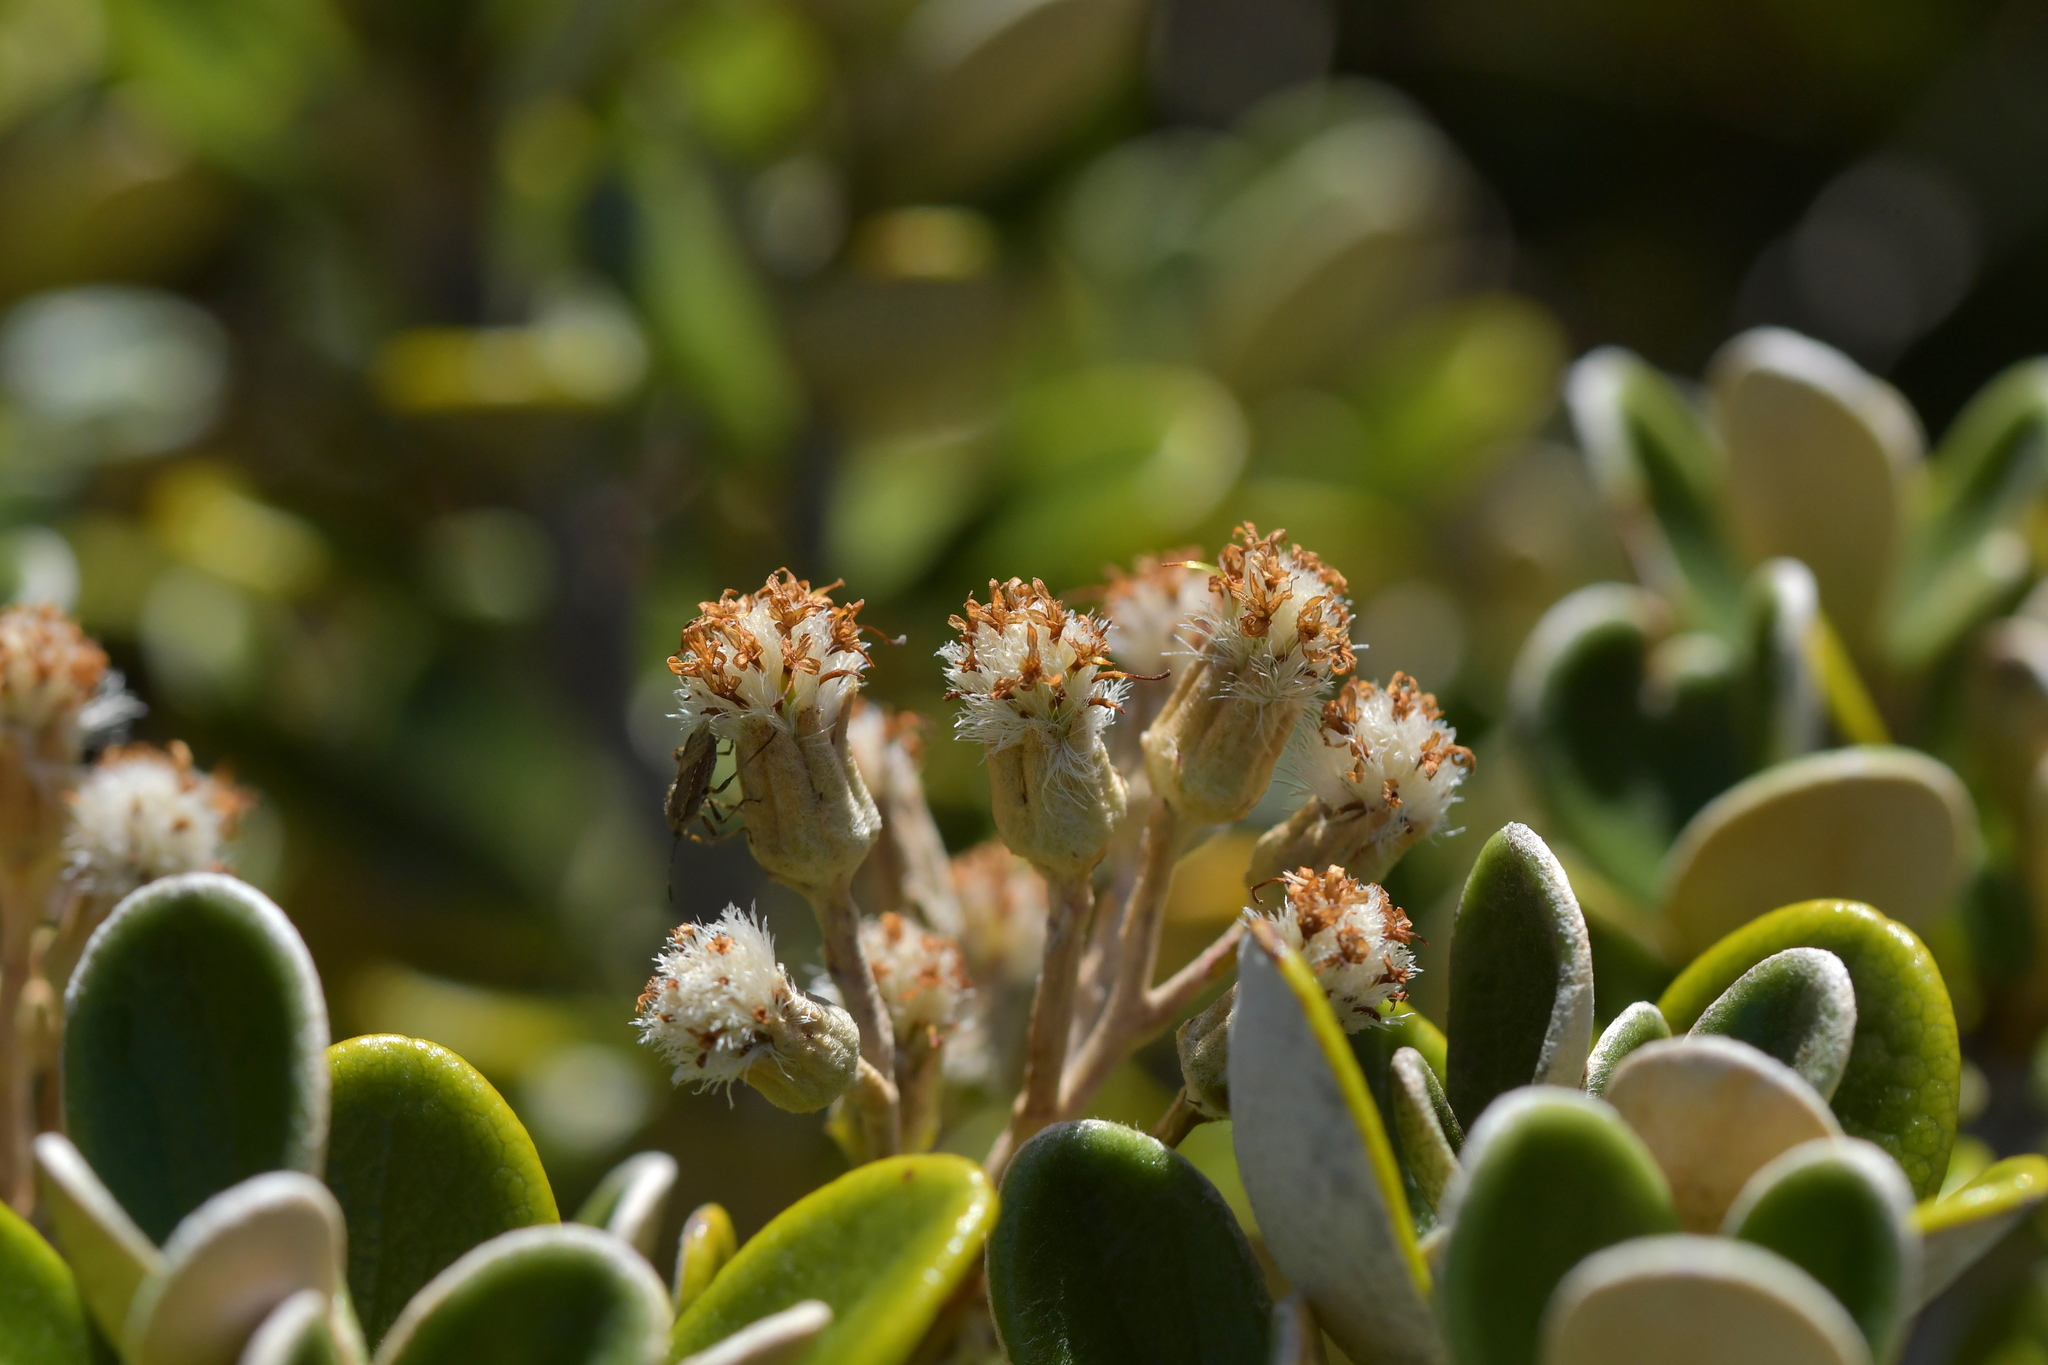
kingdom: Plantae
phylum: Tracheophyta
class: Magnoliopsida
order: Asterales
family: Asteraceae
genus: Brachyglottis
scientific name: Brachyglottis bidwillii
